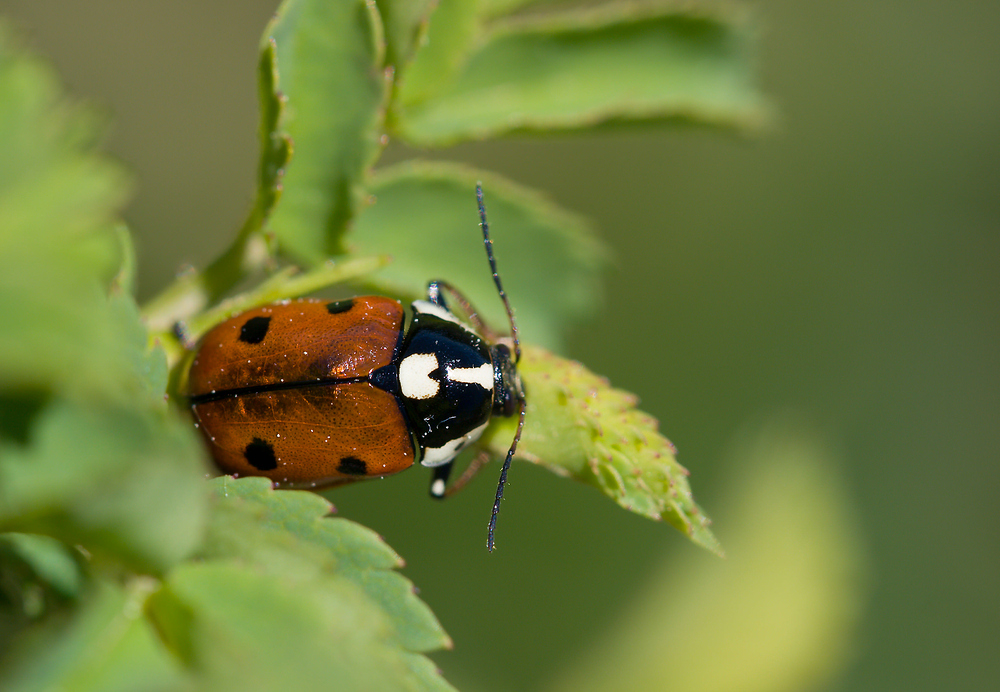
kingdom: Animalia
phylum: Arthropoda
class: Insecta
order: Coleoptera
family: Chrysomelidae
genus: Cryptocephalus
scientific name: Cryptocephalus cordiger
